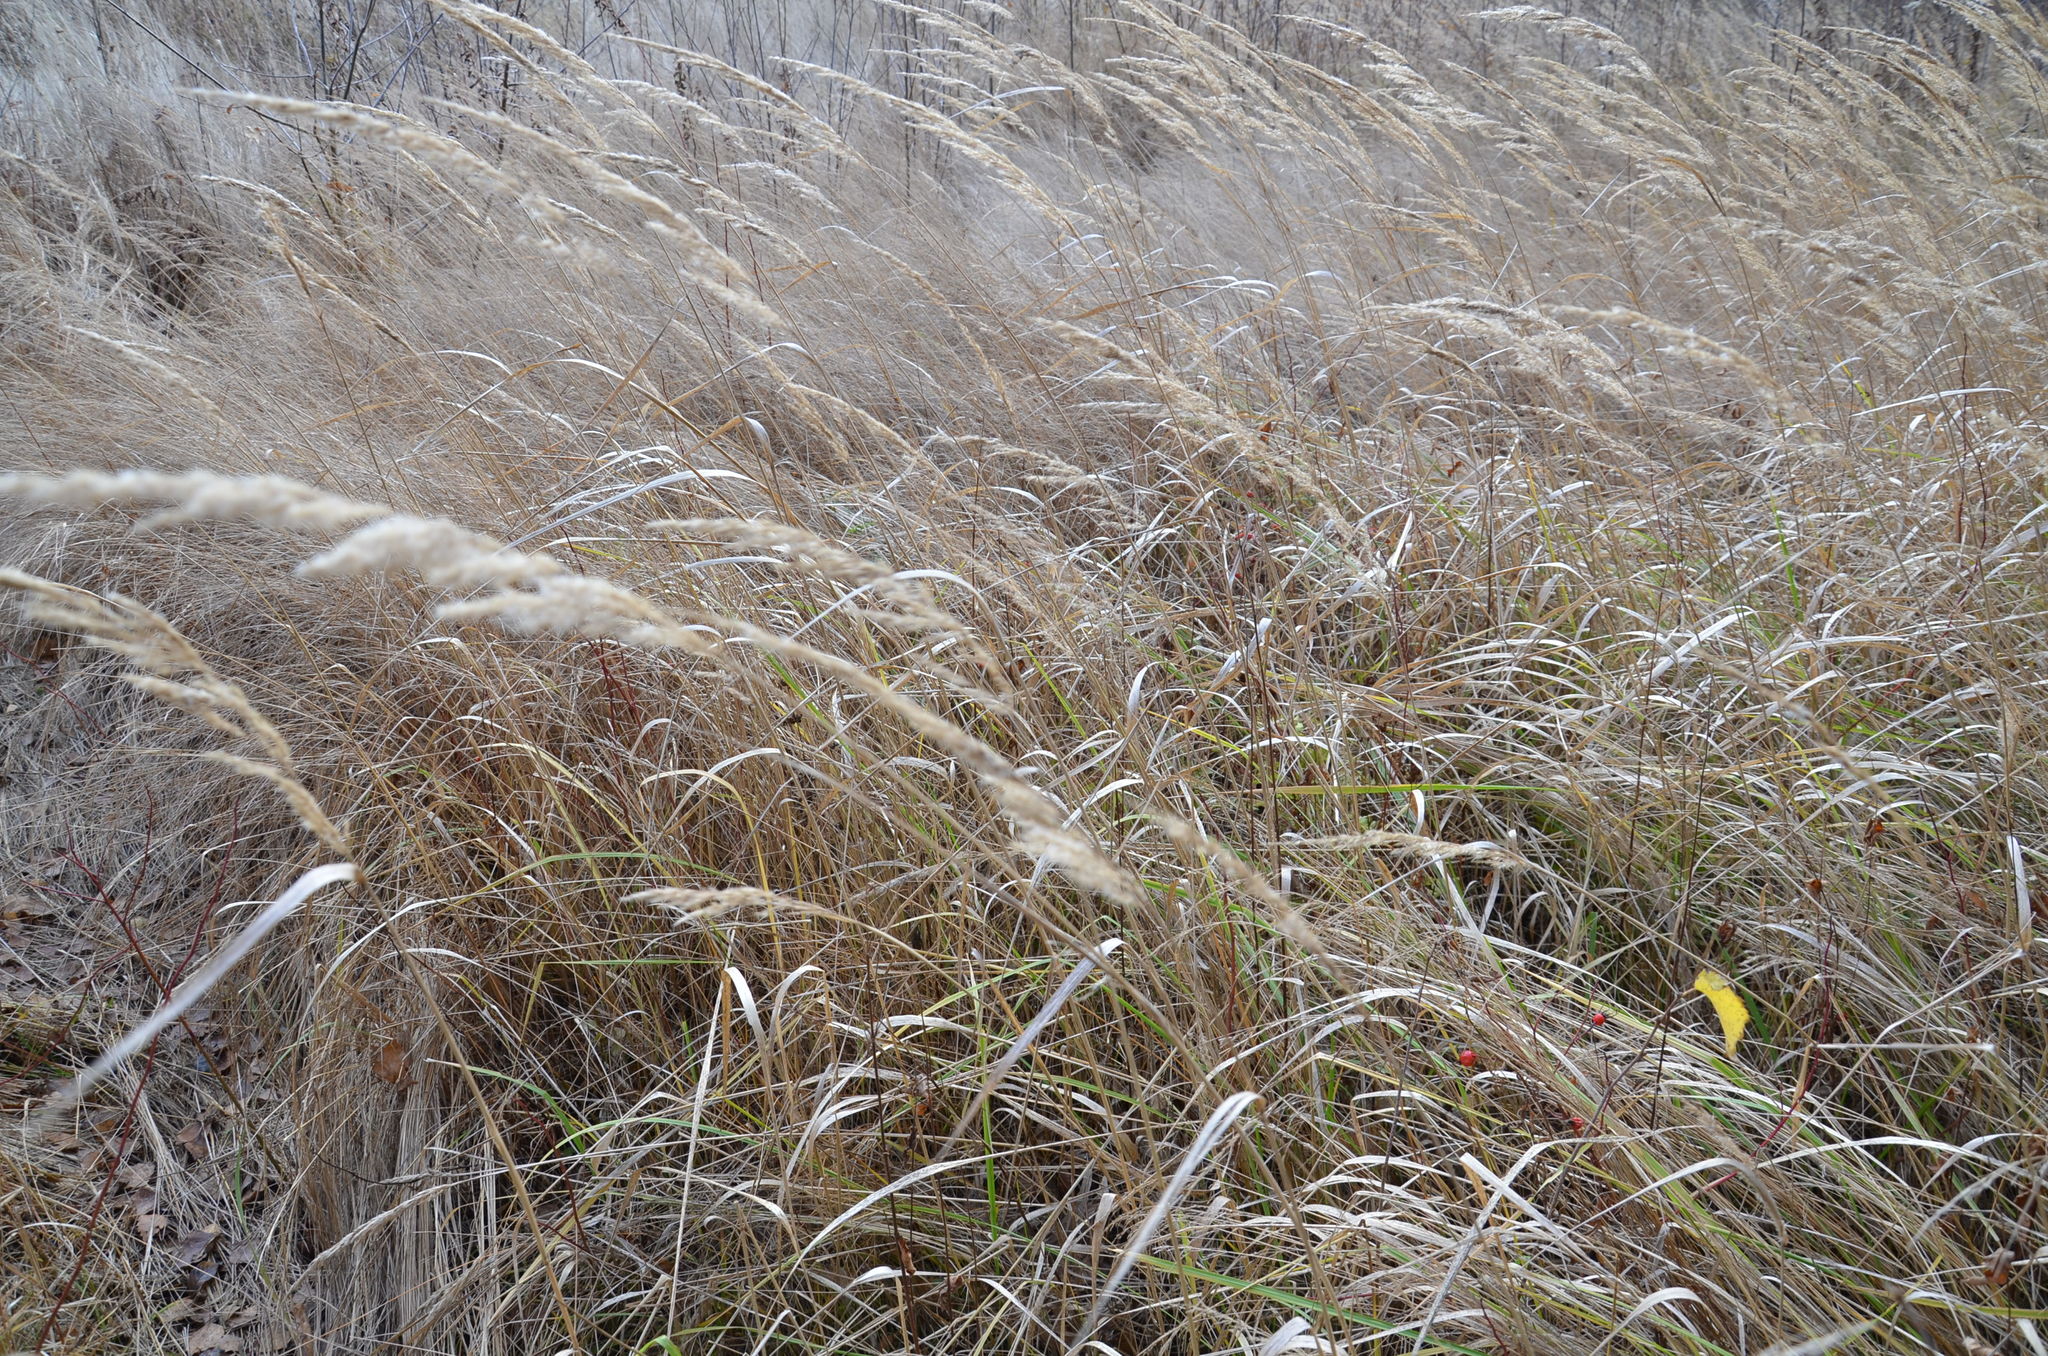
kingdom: Plantae
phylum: Tracheophyta
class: Liliopsida
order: Poales
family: Poaceae
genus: Calamagrostis
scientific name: Calamagrostis epigejos
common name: Wood small-reed
